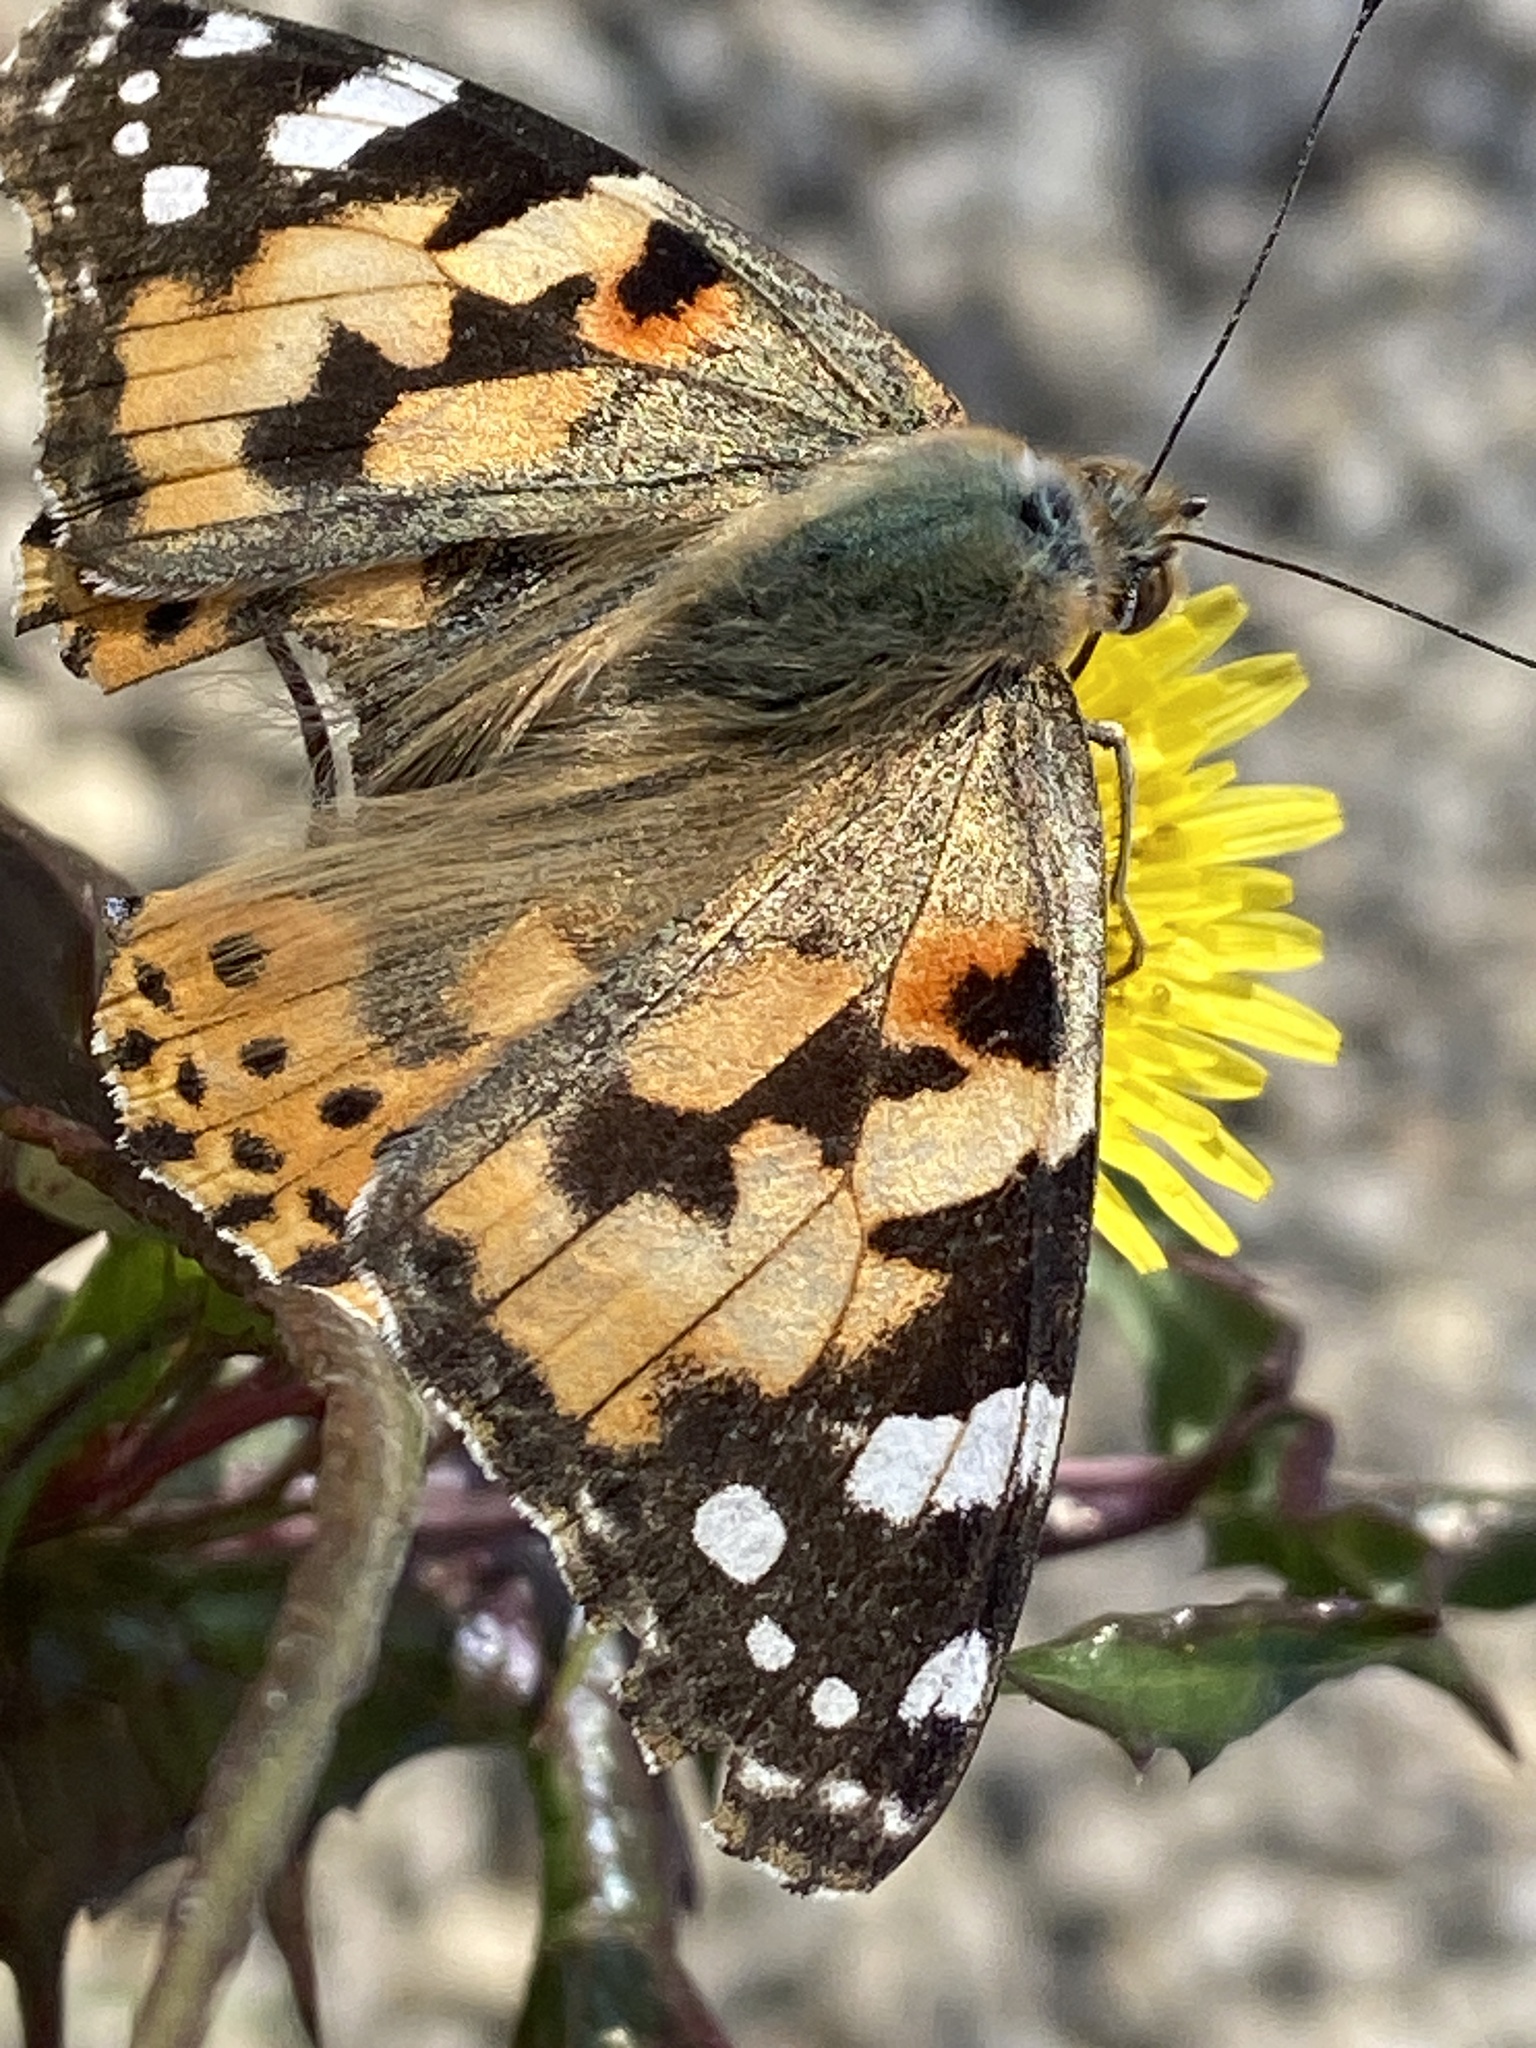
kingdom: Animalia
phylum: Arthropoda
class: Insecta
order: Lepidoptera
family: Nymphalidae
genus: Vanessa
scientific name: Vanessa cardui
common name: Painted lady
